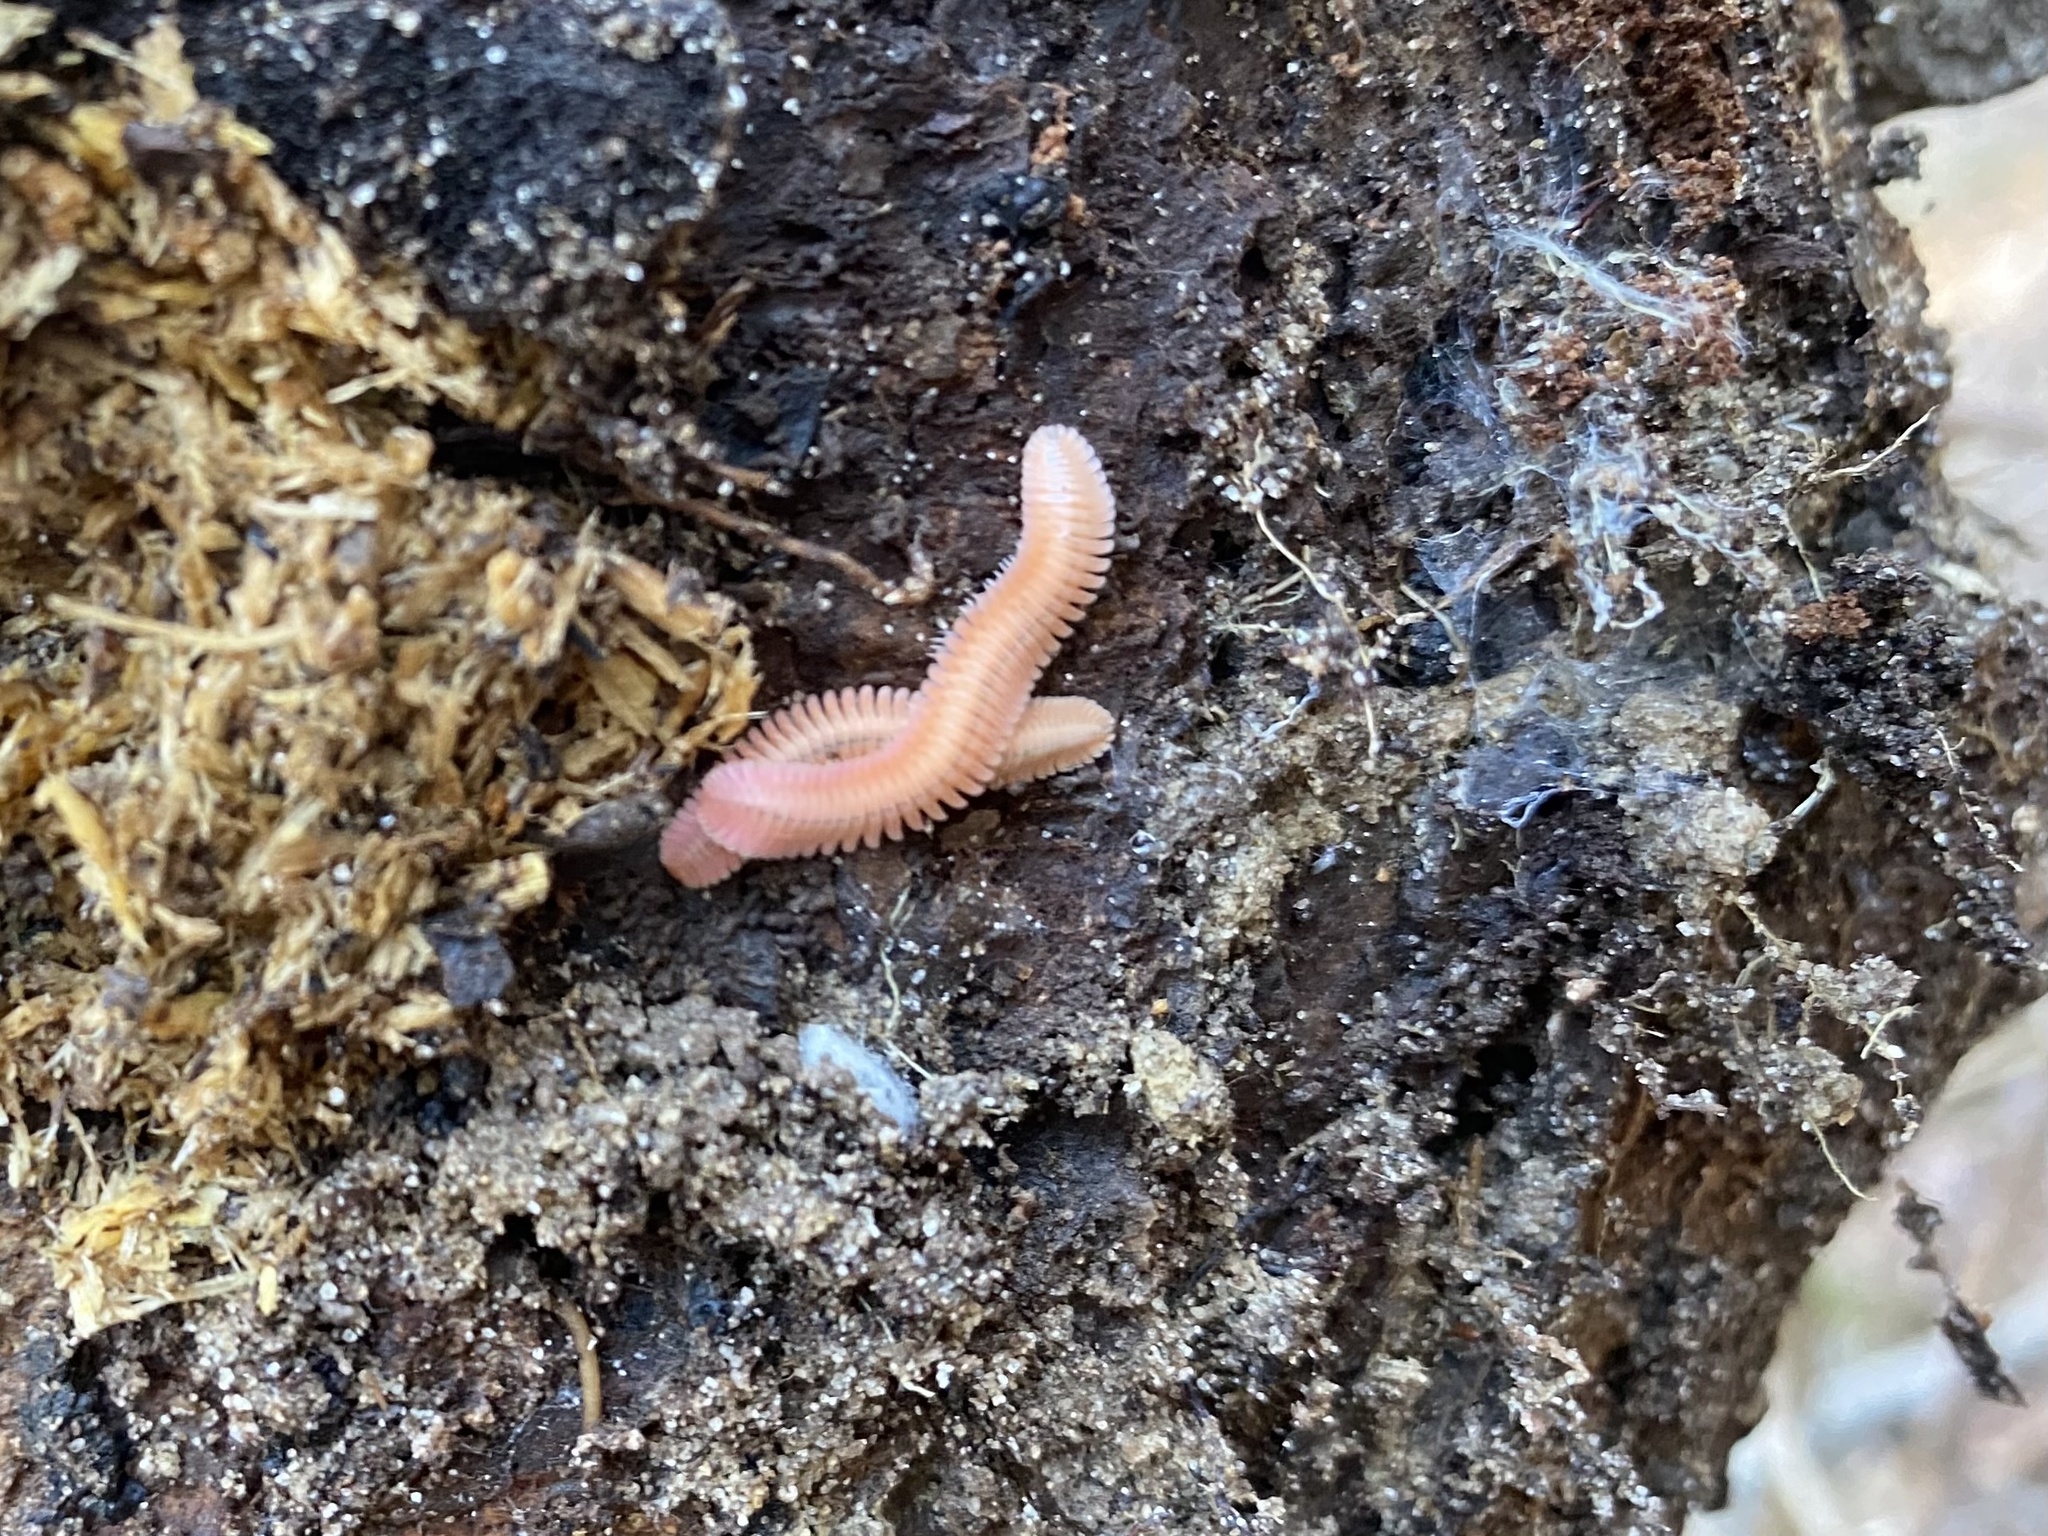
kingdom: Animalia
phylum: Arthropoda
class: Diplopoda
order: Platydesmida
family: Andrognathidae
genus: Brachycybe
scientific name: Brachycybe lecontii
